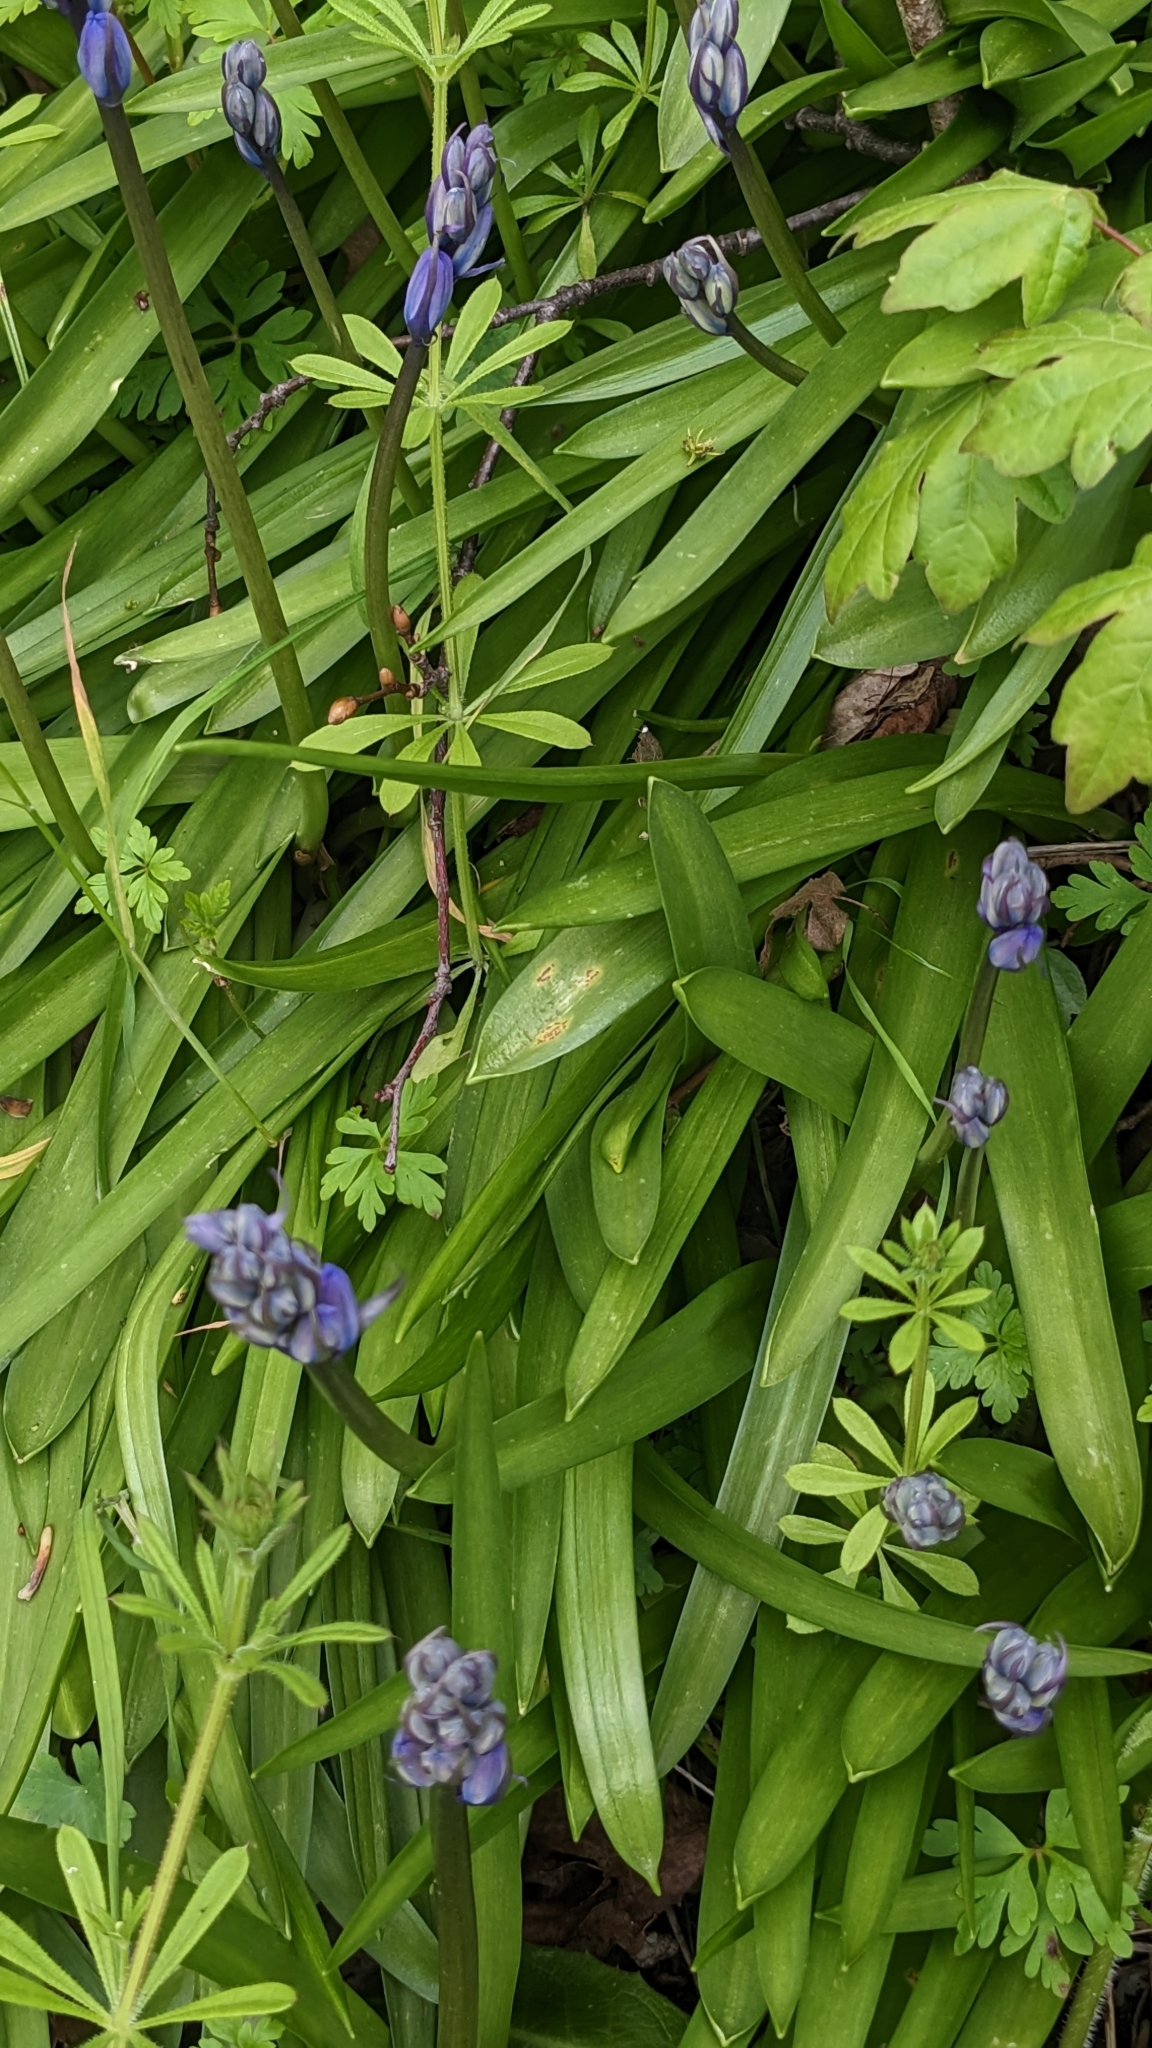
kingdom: Fungi
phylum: Basidiomycota
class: Pucciniomycetes
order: Pucciniales
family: Pucciniaceae
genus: Uromyces
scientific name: Uromyces hyacinthi
